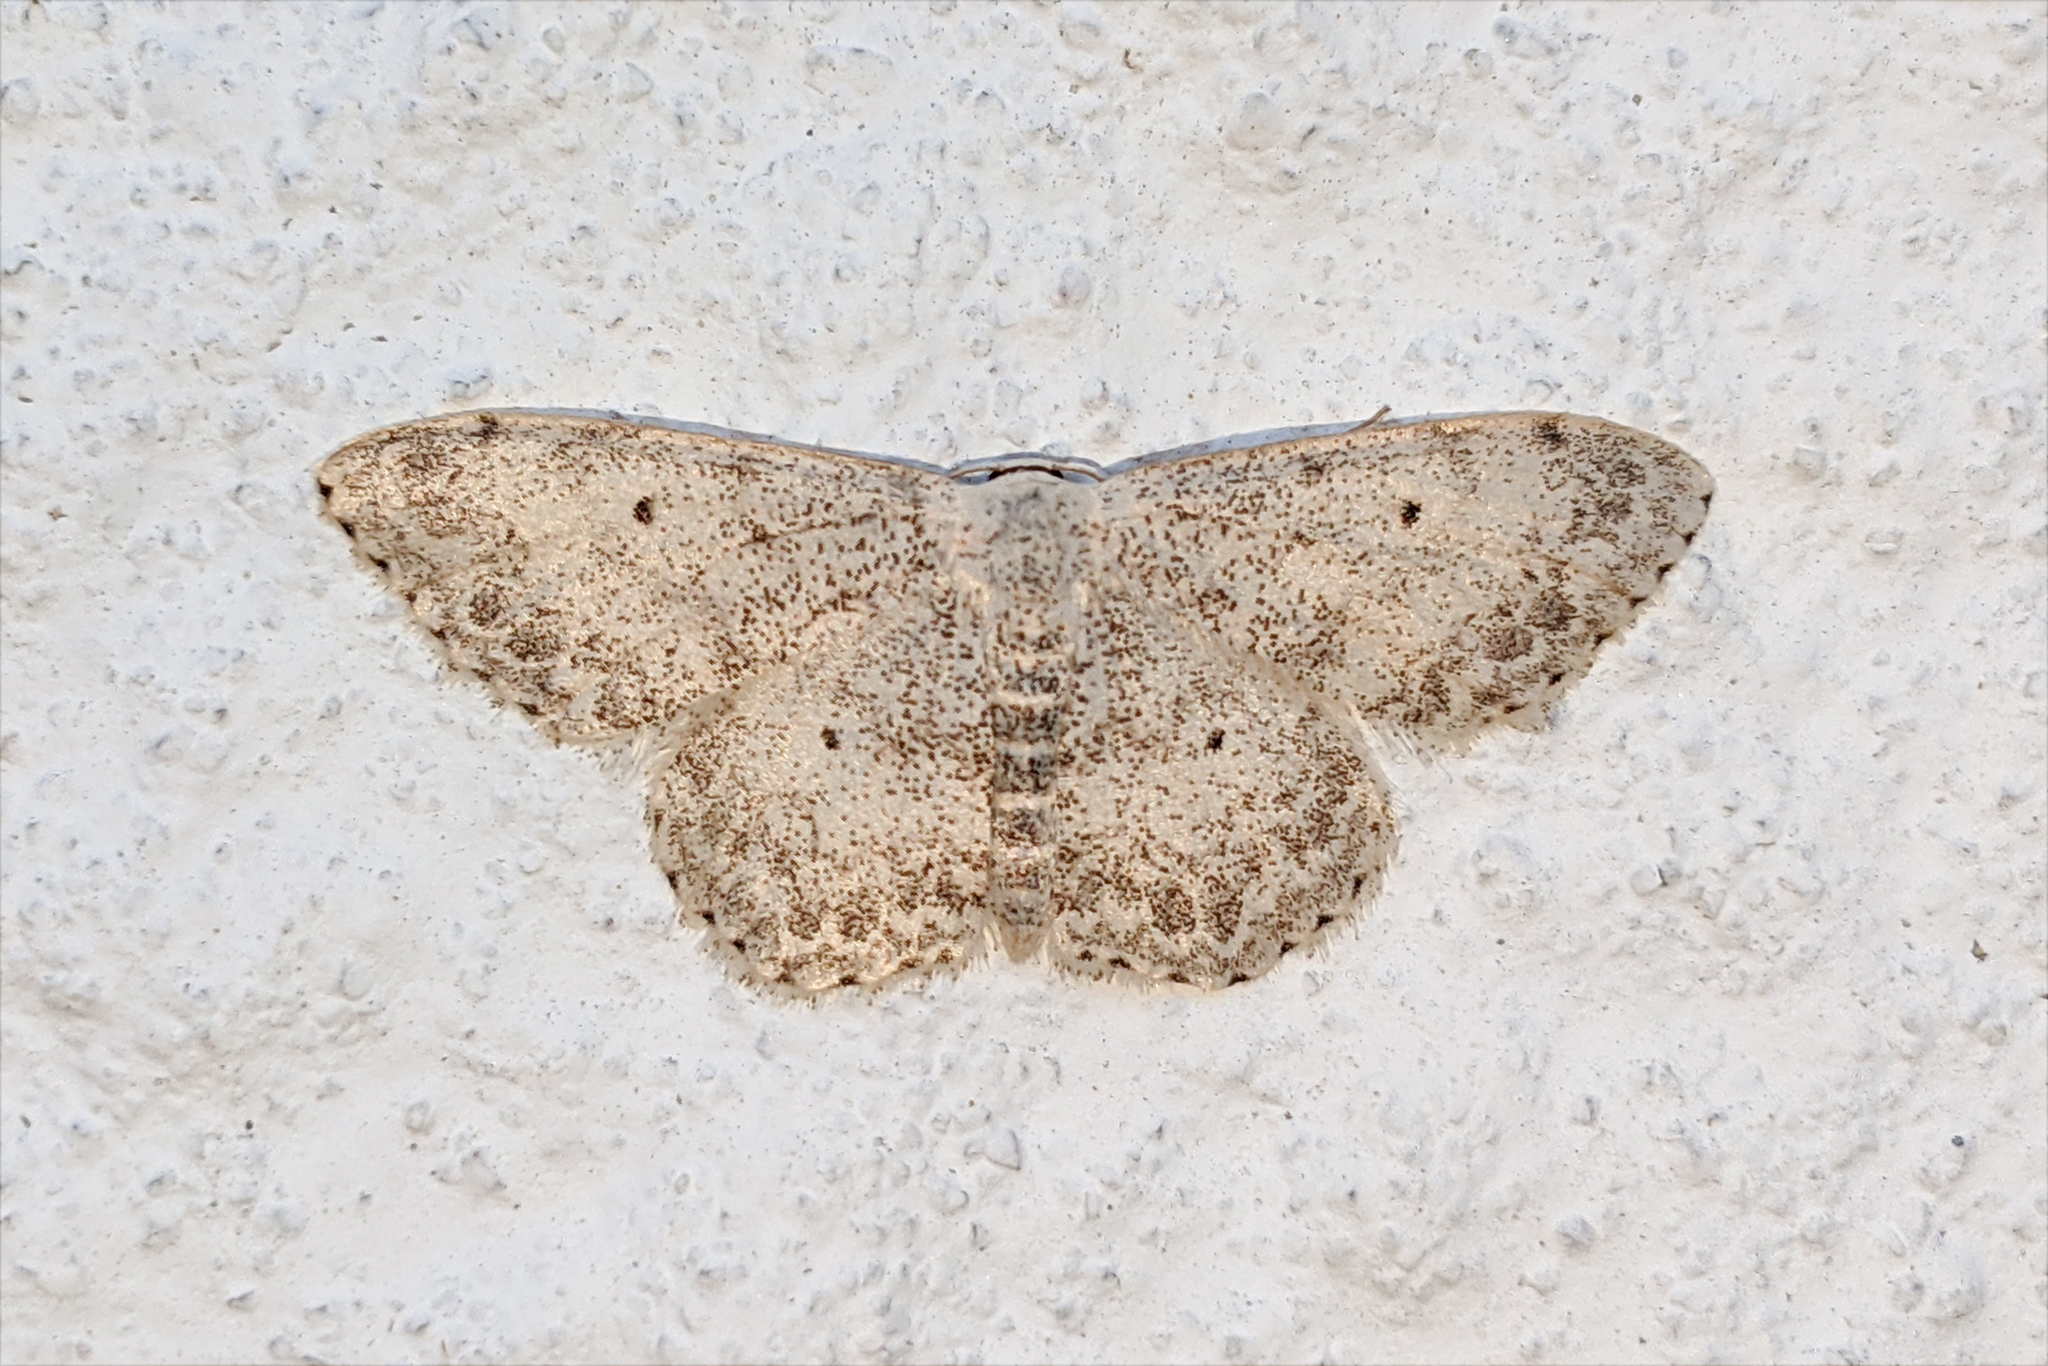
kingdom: Animalia
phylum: Arthropoda
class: Insecta
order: Lepidoptera
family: Geometridae
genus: Scopula
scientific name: Scopula marginepunctata
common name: Mullein wave
